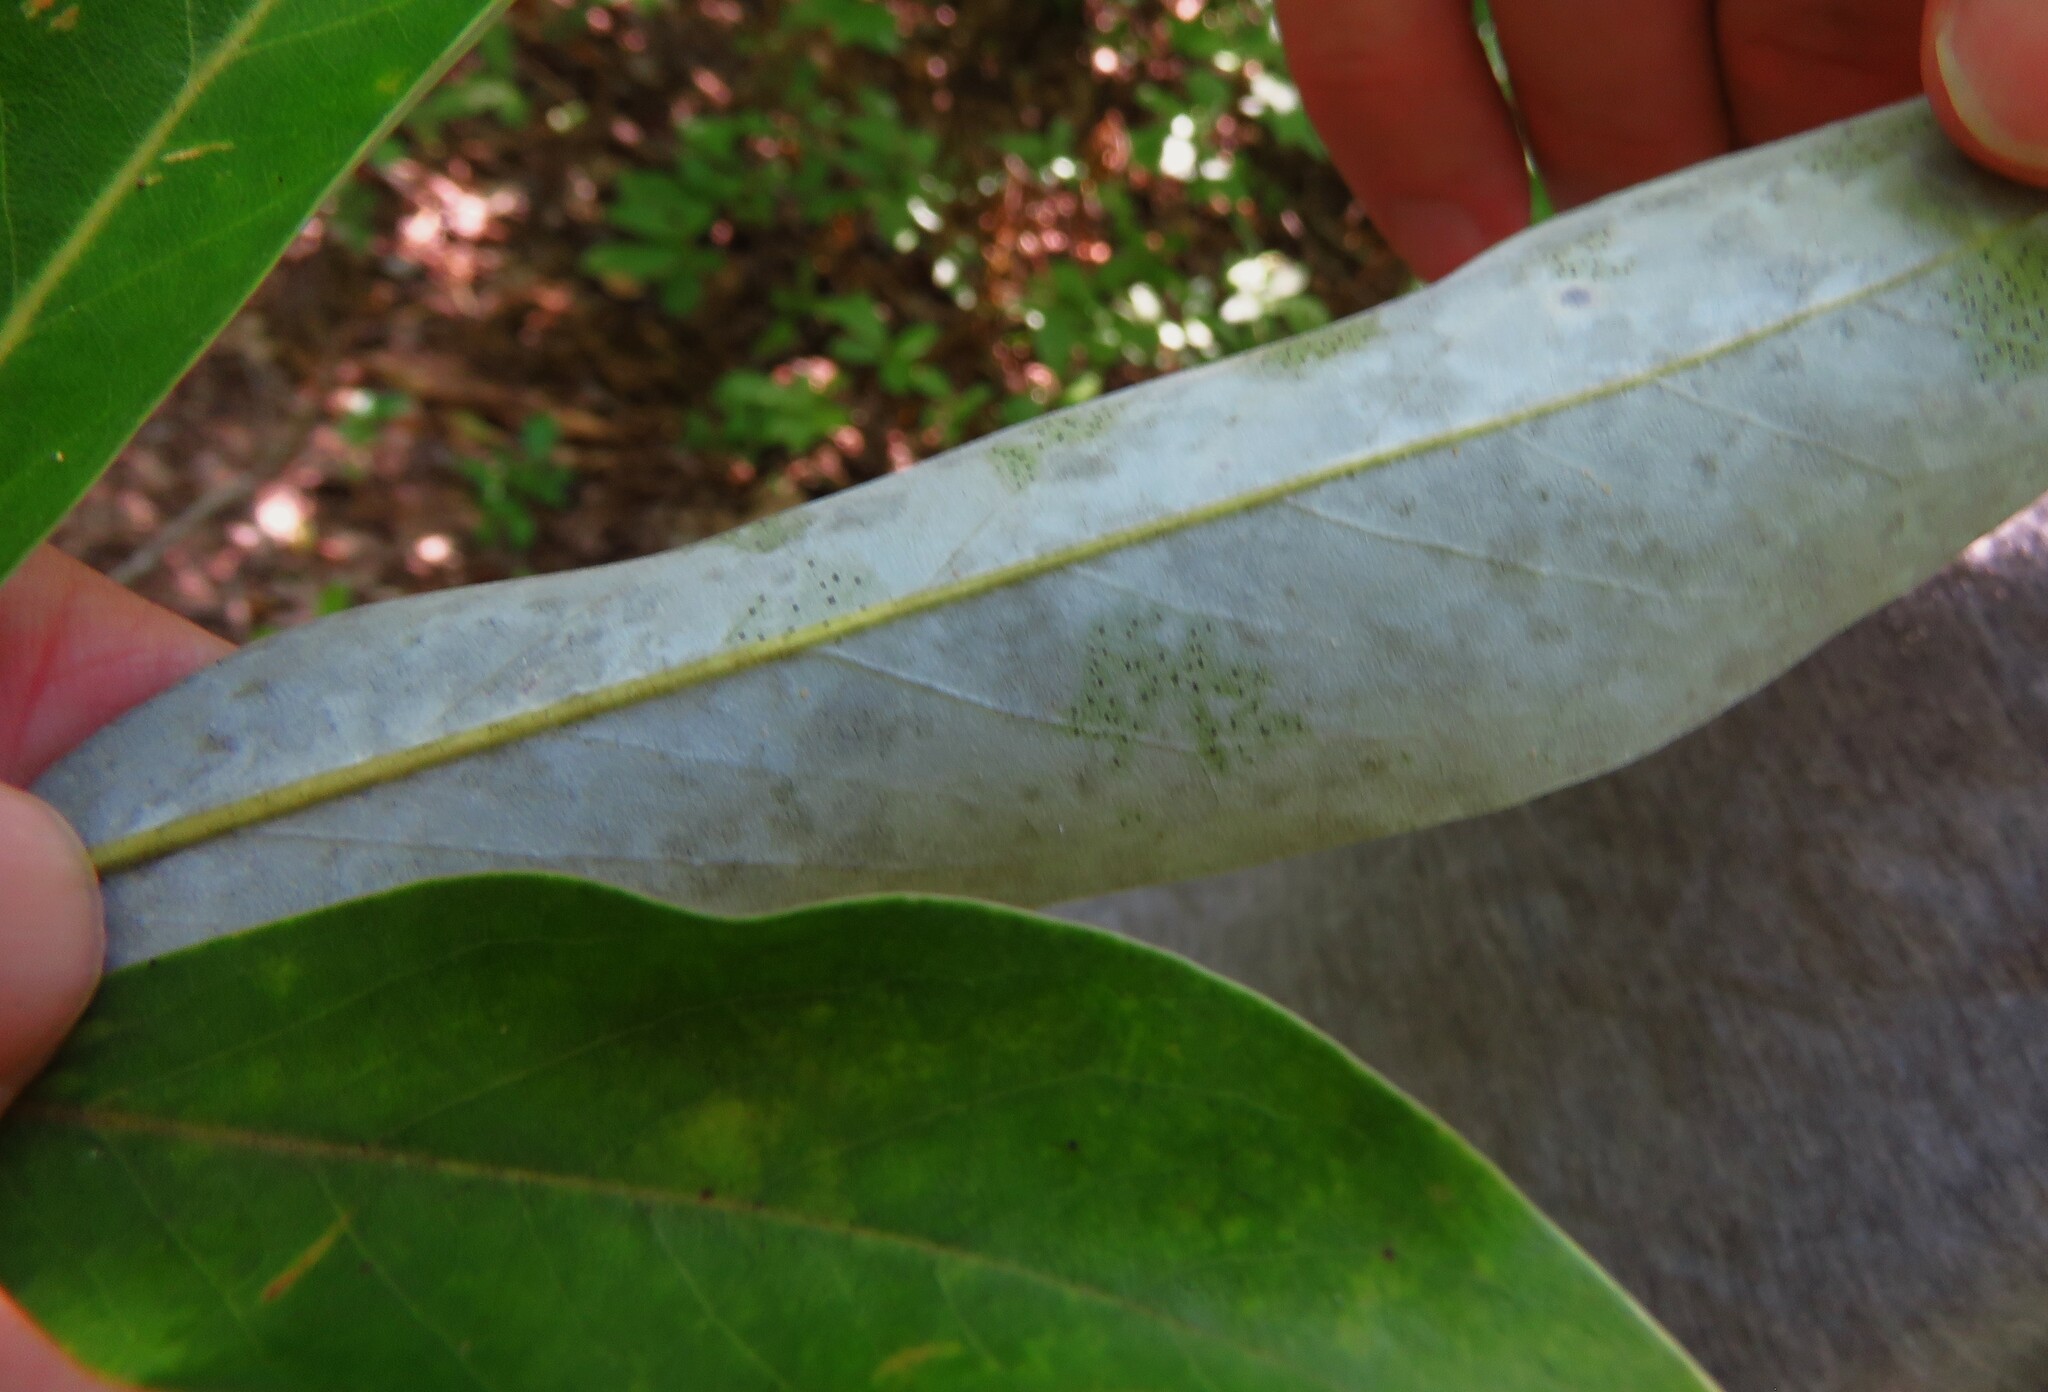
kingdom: Plantae
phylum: Tracheophyta
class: Magnoliopsida
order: Magnoliales
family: Magnoliaceae
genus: Magnolia
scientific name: Magnolia virginiana
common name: Swamp bay
